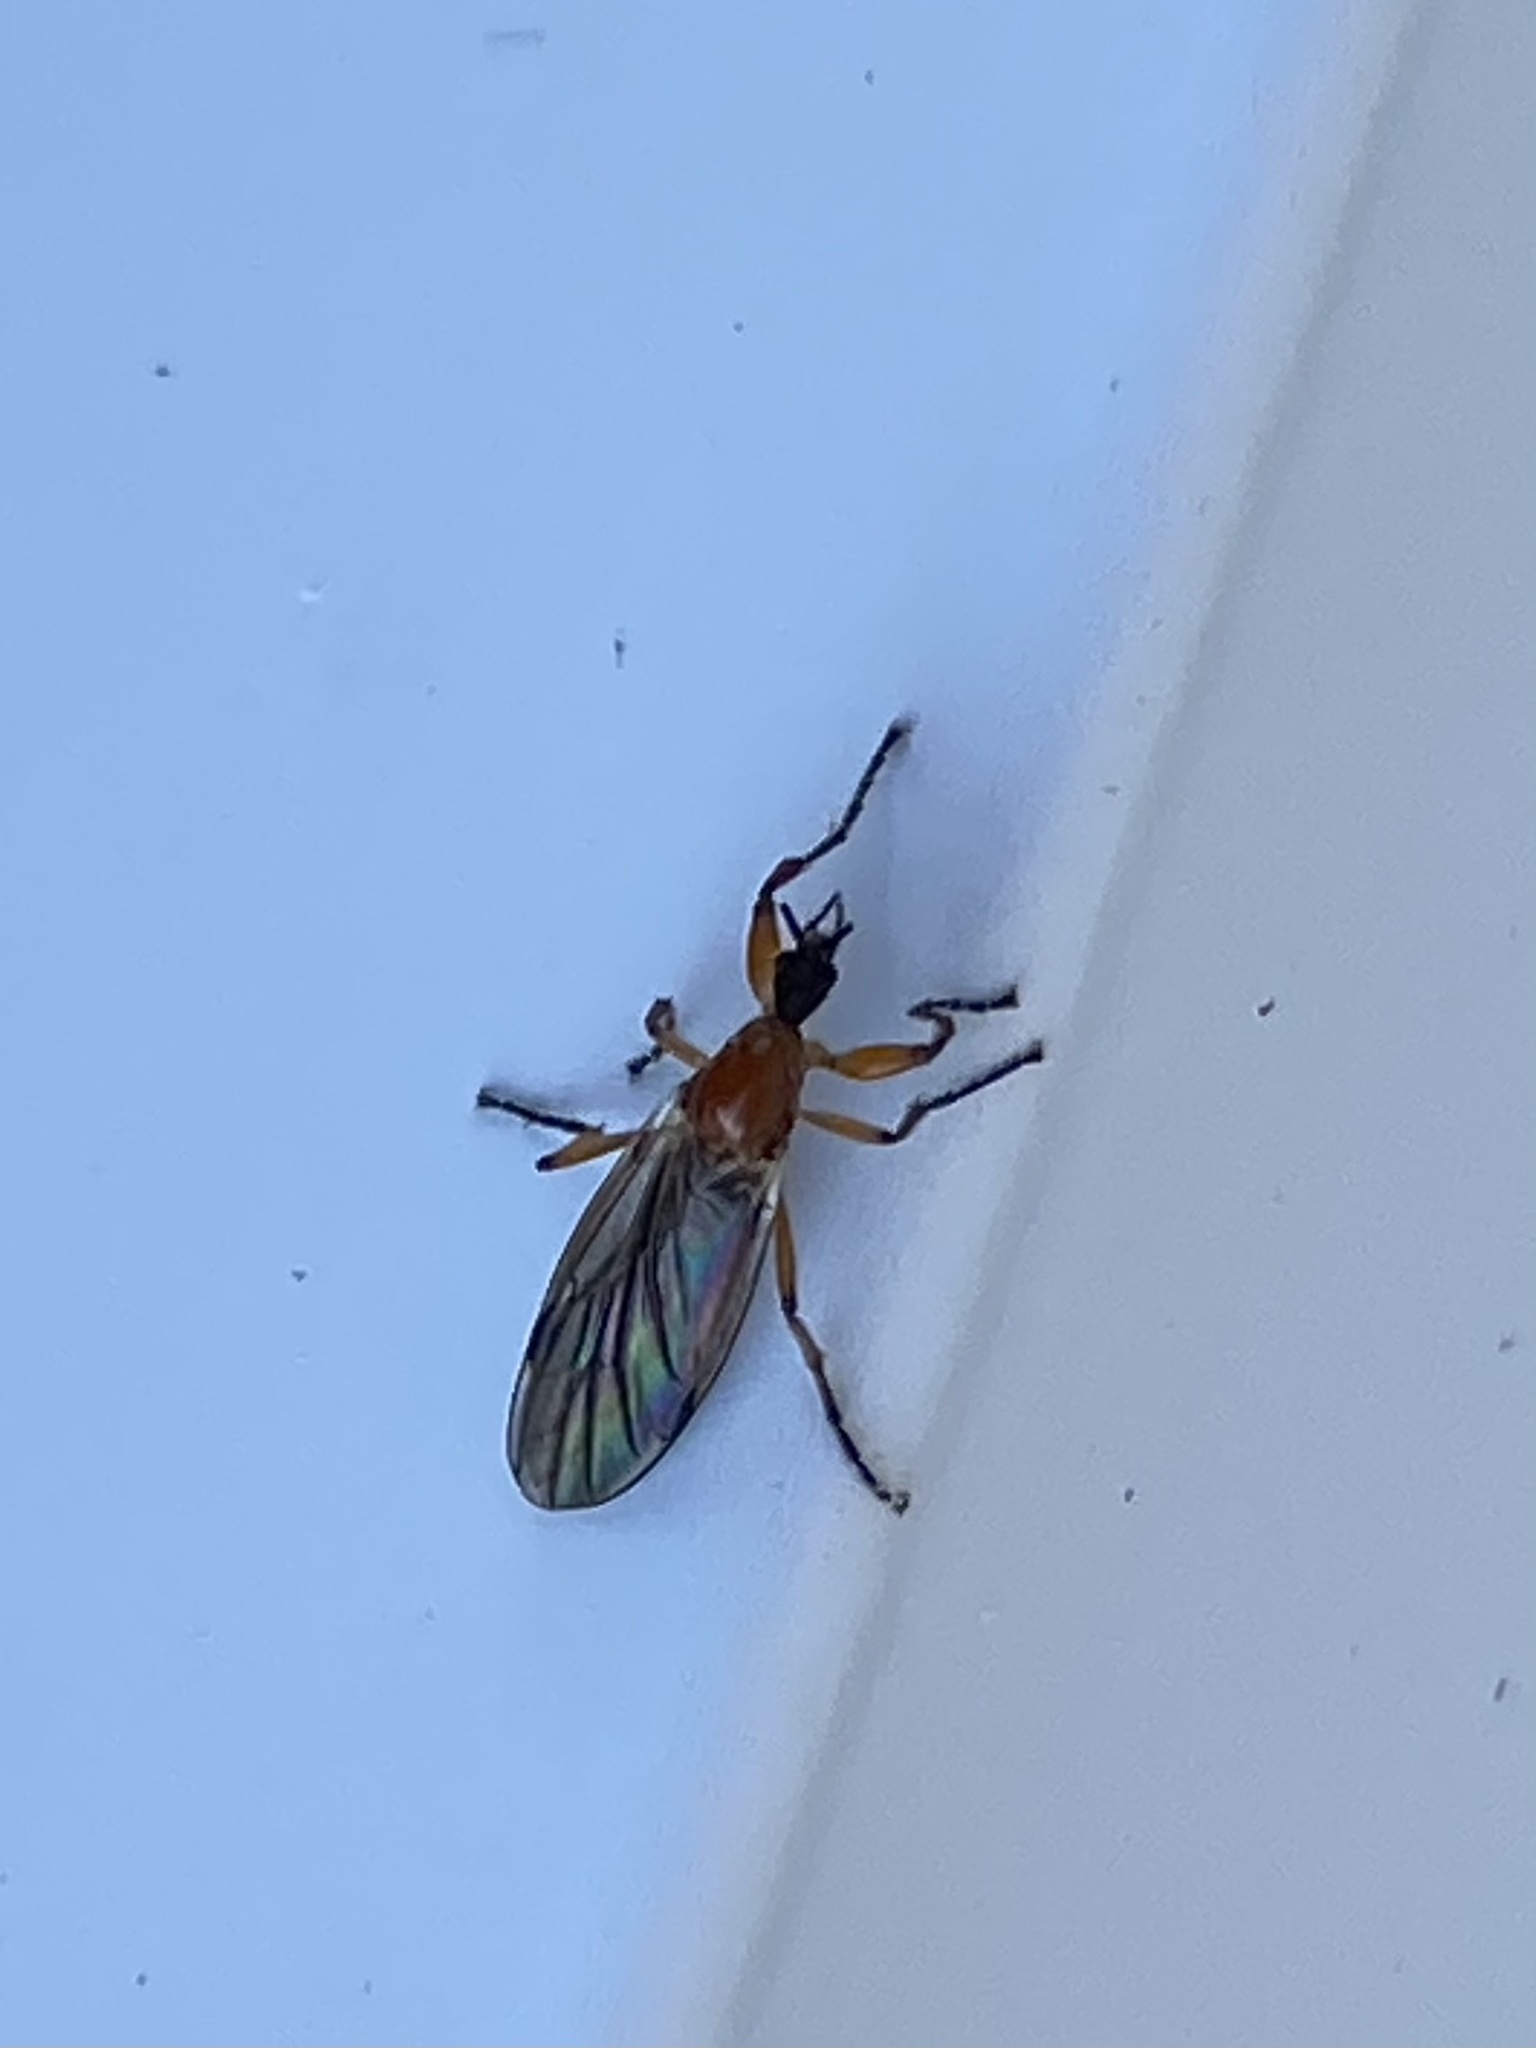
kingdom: Animalia
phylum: Arthropoda
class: Insecta
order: Diptera
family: Bibionidae
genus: Bibio
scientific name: Bibio longipes
